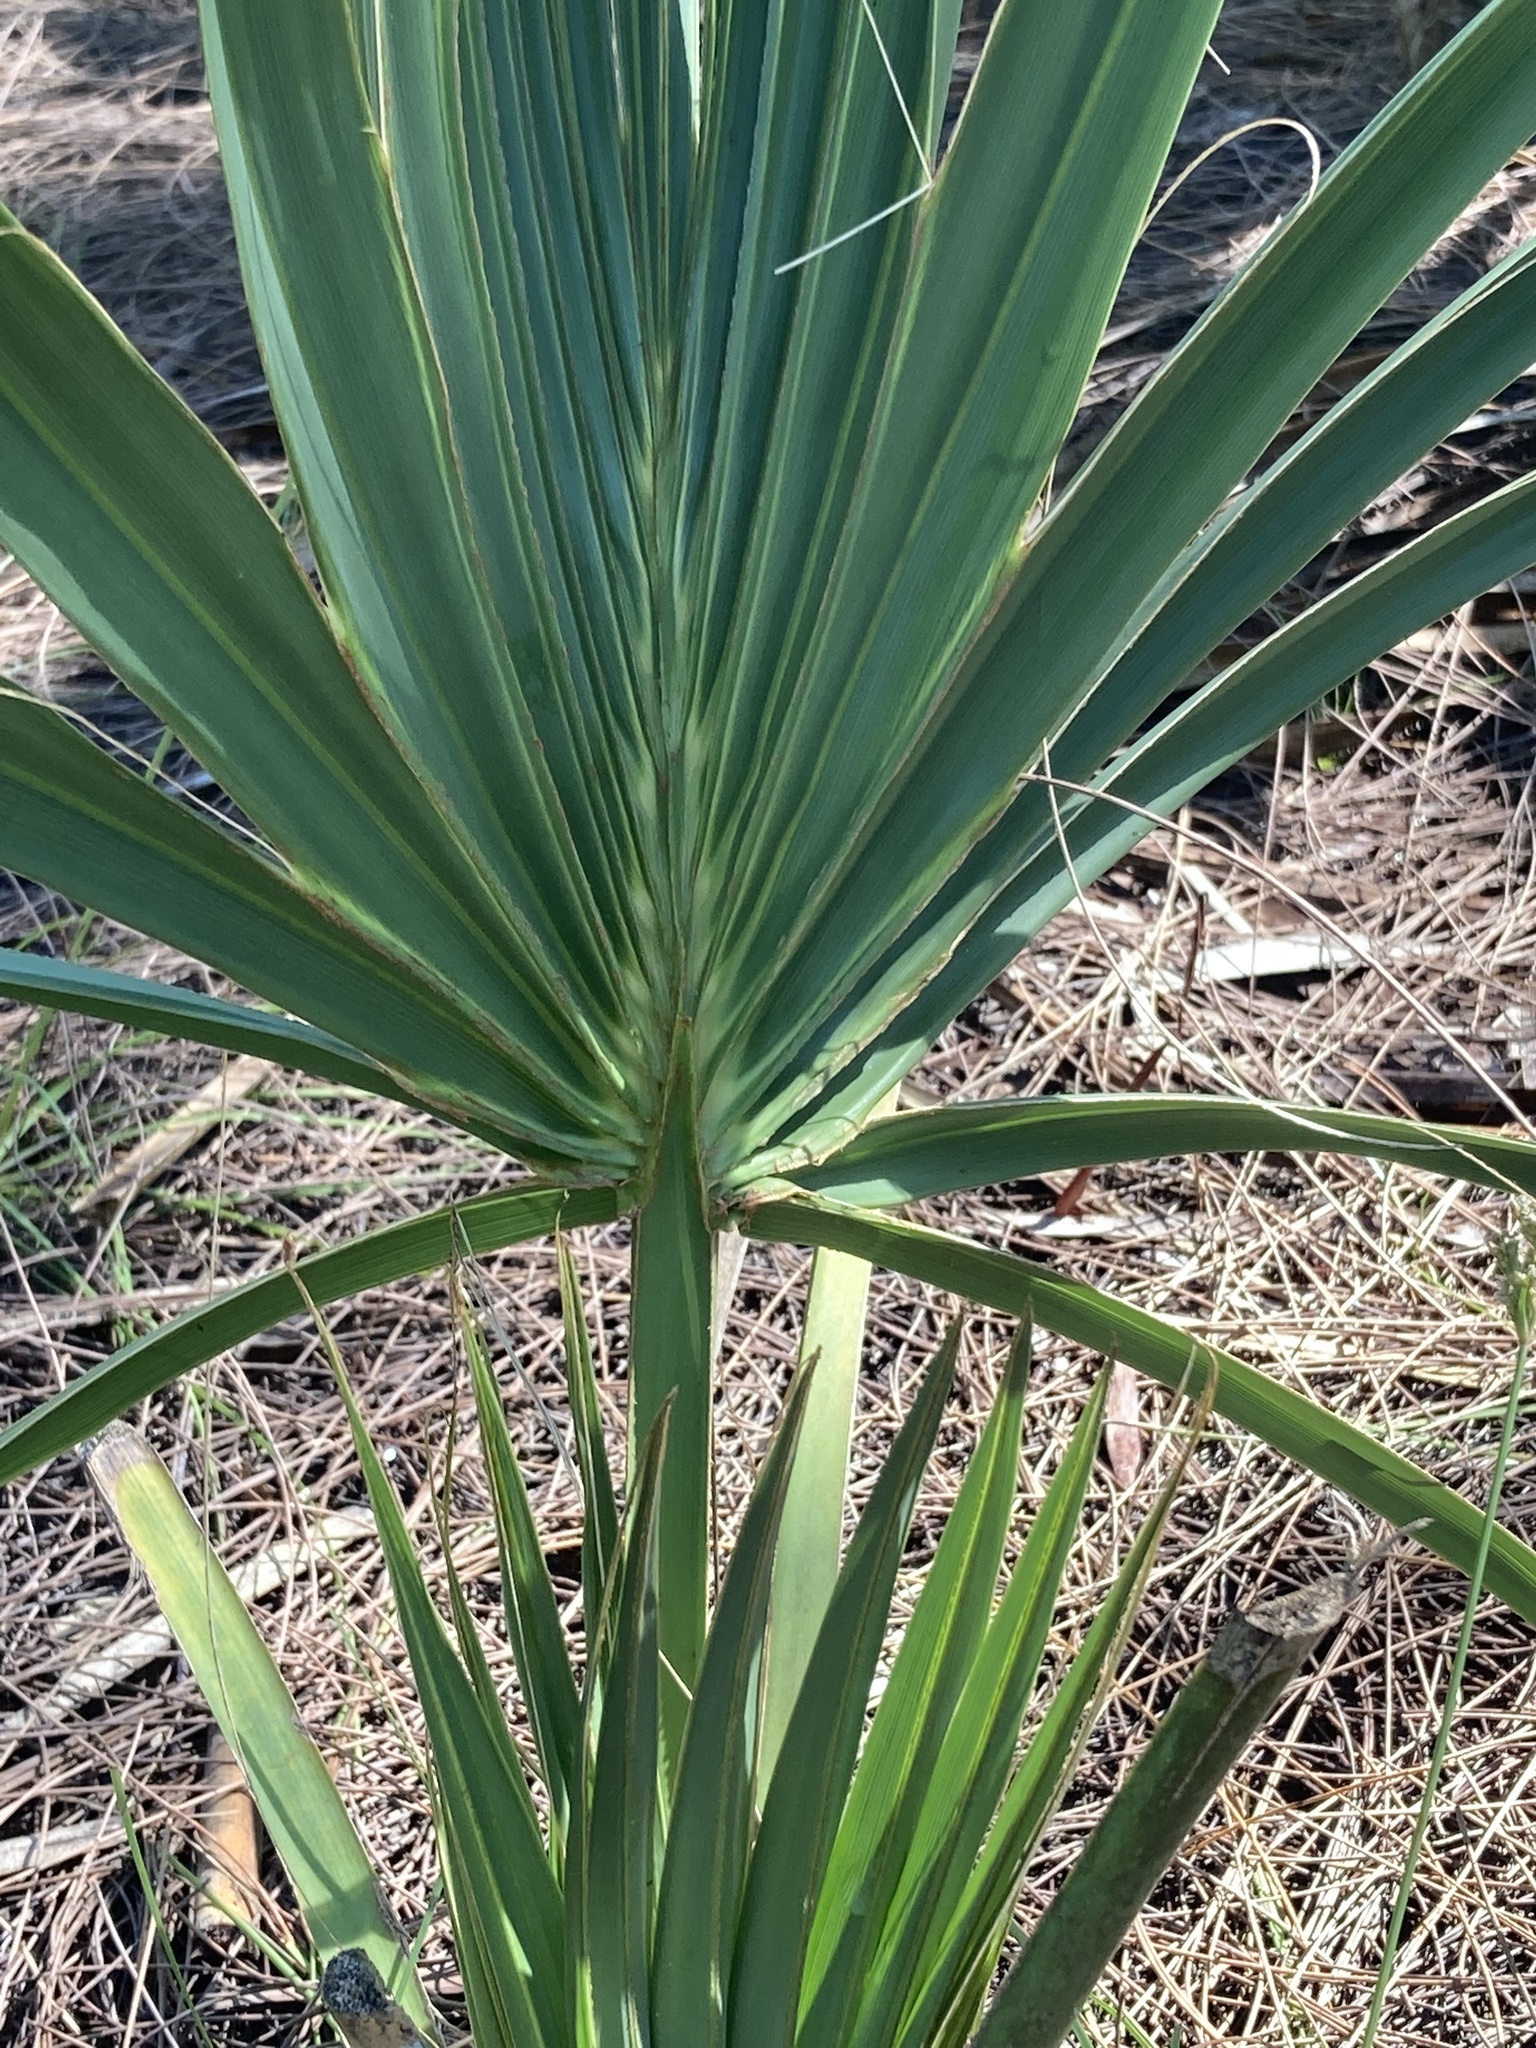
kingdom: Plantae
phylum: Tracheophyta
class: Liliopsida
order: Arecales
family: Arecaceae
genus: Sabal
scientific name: Sabal palmetto
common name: Blue palmetto
